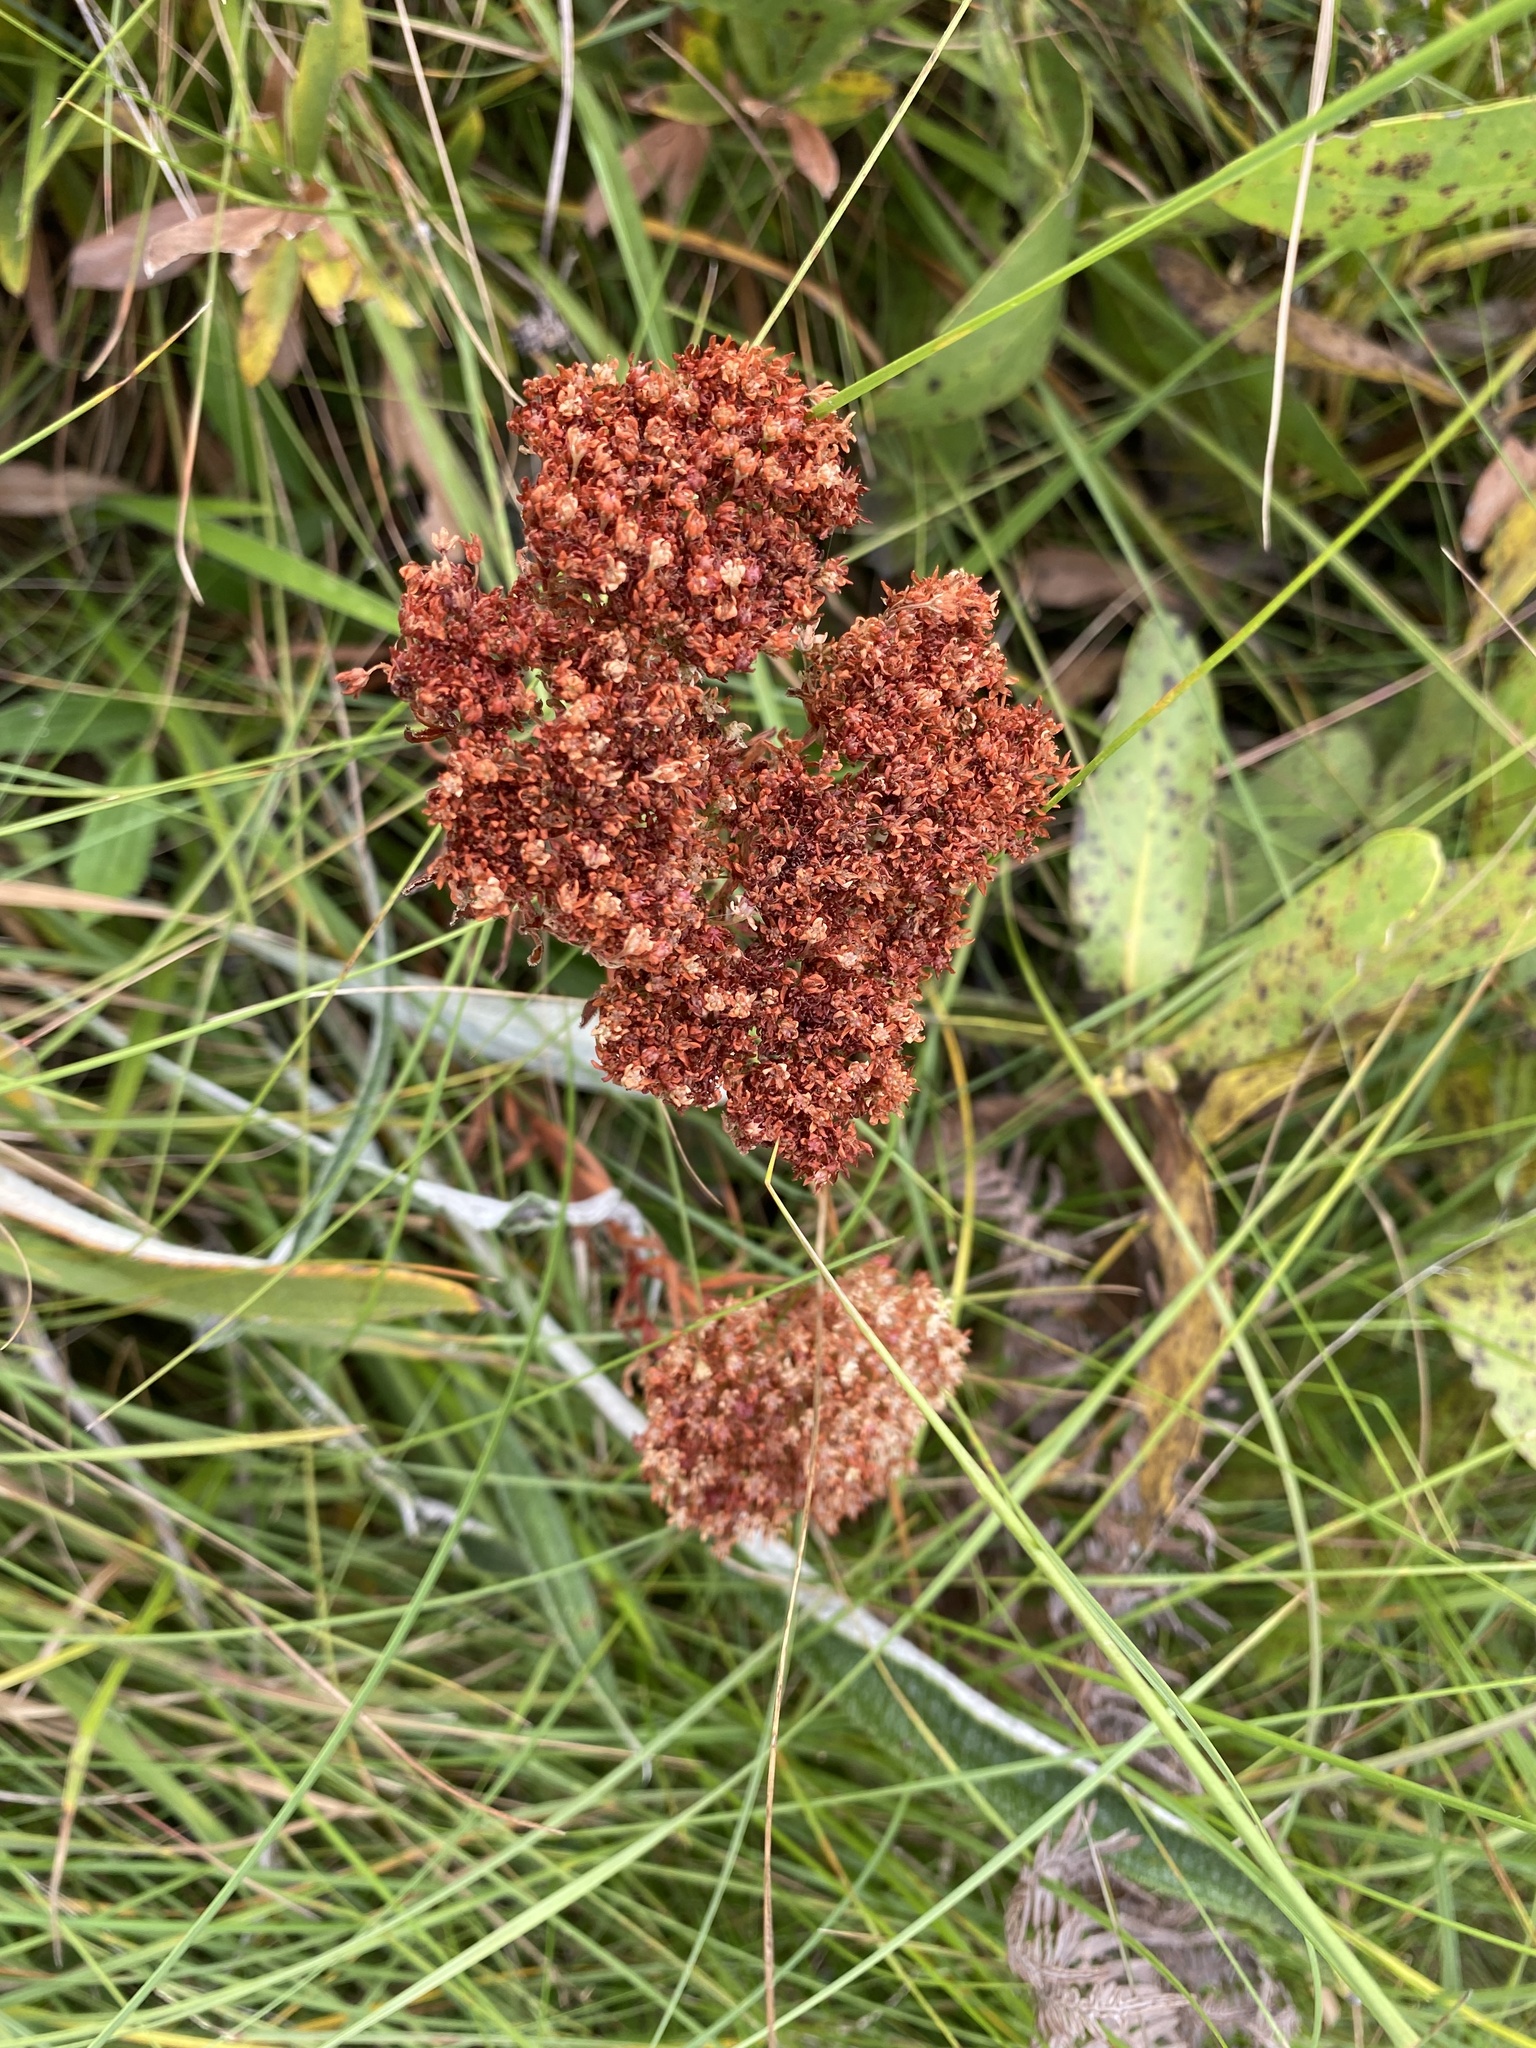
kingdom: Plantae
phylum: Tracheophyta
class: Magnoliopsida
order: Saxifragales
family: Crassulaceae
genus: Crassula
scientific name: Crassula alba
